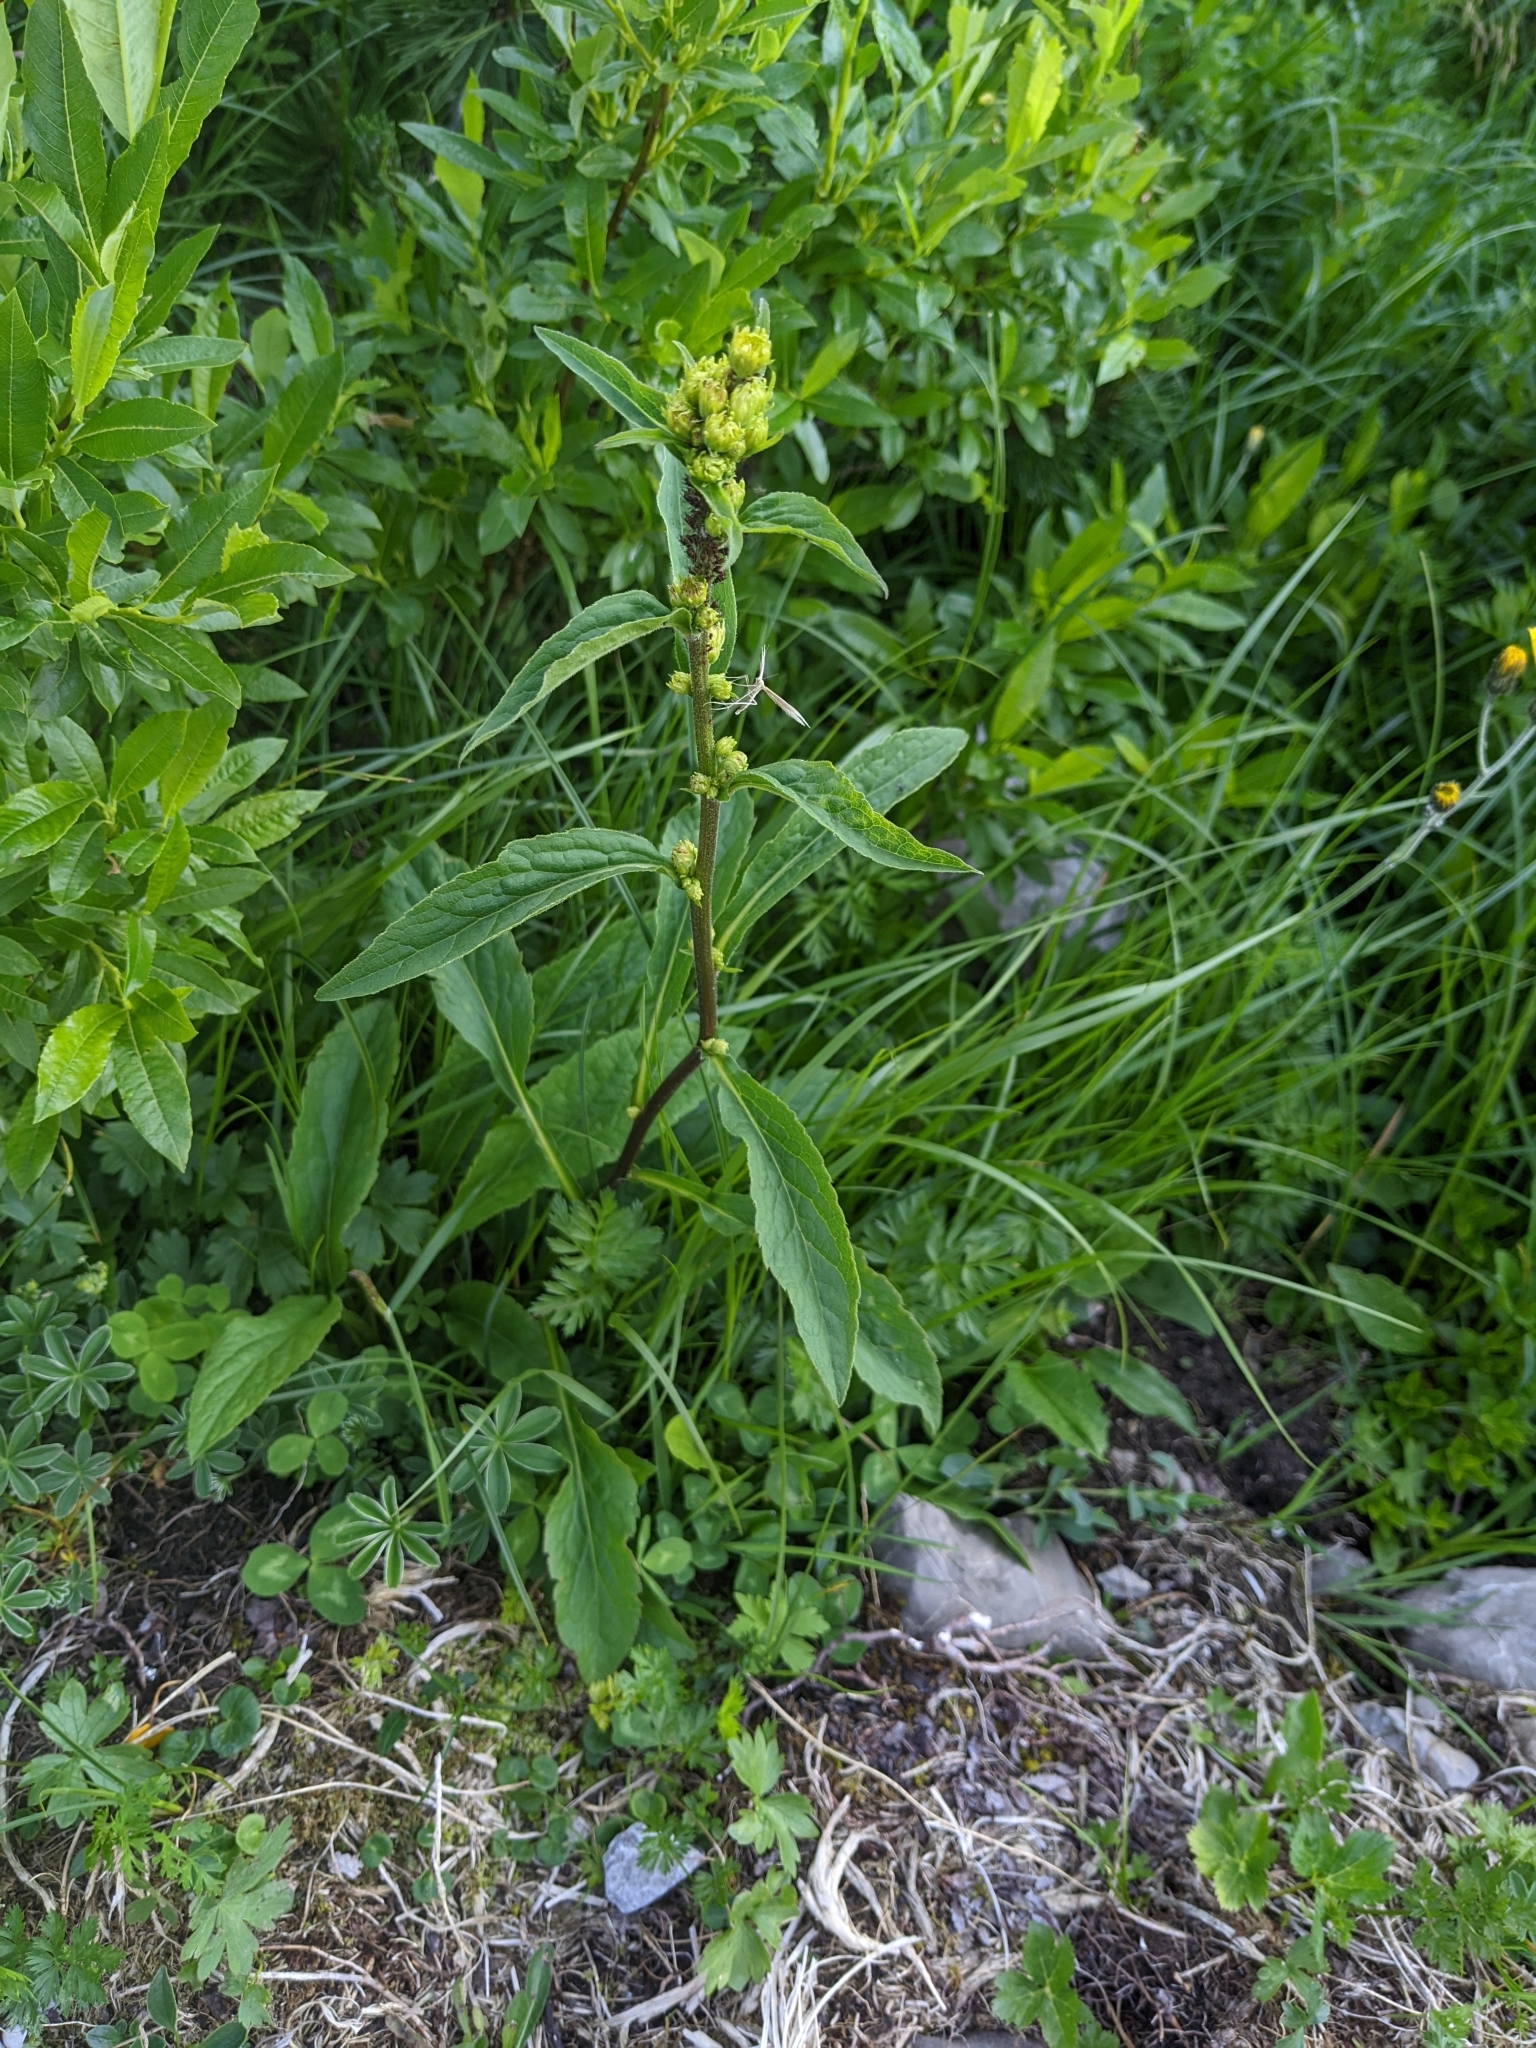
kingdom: Plantae
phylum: Tracheophyta
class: Magnoliopsida
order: Asterales
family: Asteraceae
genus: Solidago
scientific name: Solidago virgaurea
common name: Goldenrod
